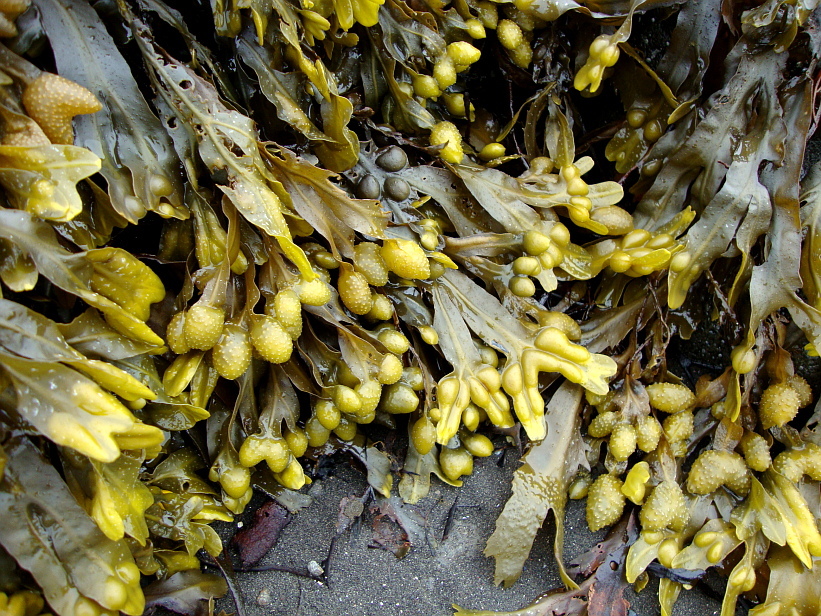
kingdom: Chromista
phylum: Ochrophyta
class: Phaeophyceae
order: Fucales
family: Fucaceae
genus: Fucus
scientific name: Fucus vesiculosus
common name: Bladder wrack
